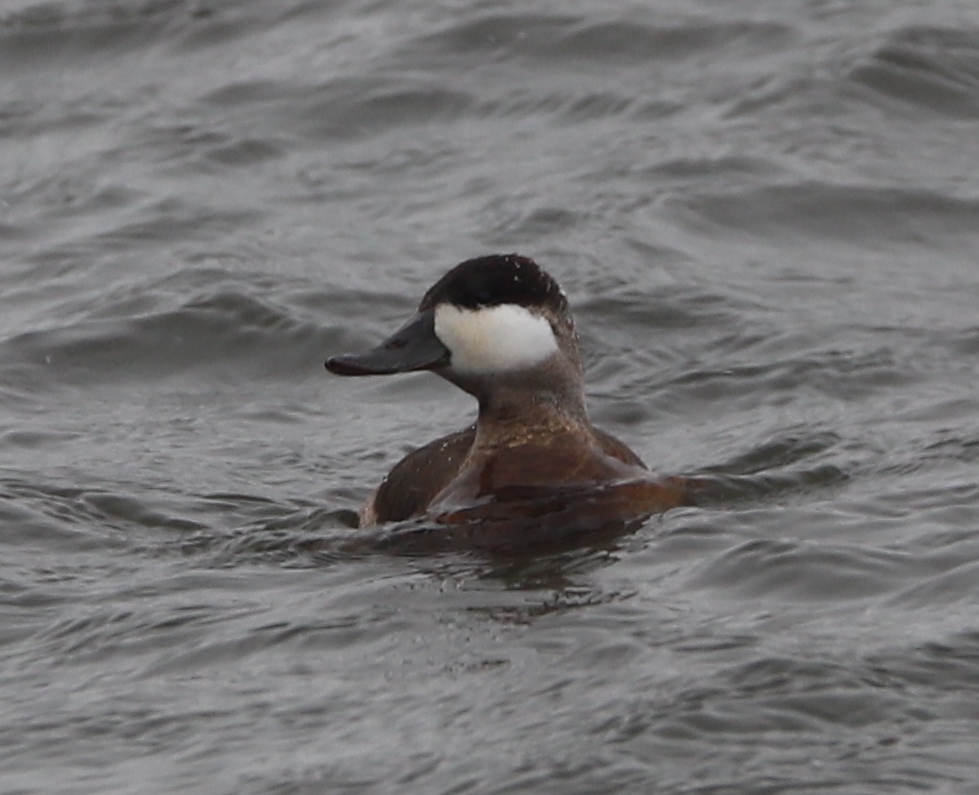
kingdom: Animalia
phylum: Chordata
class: Aves
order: Anseriformes
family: Anatidae
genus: Oxyura
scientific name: Oxyura jamaicensis
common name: Ruddy duck
